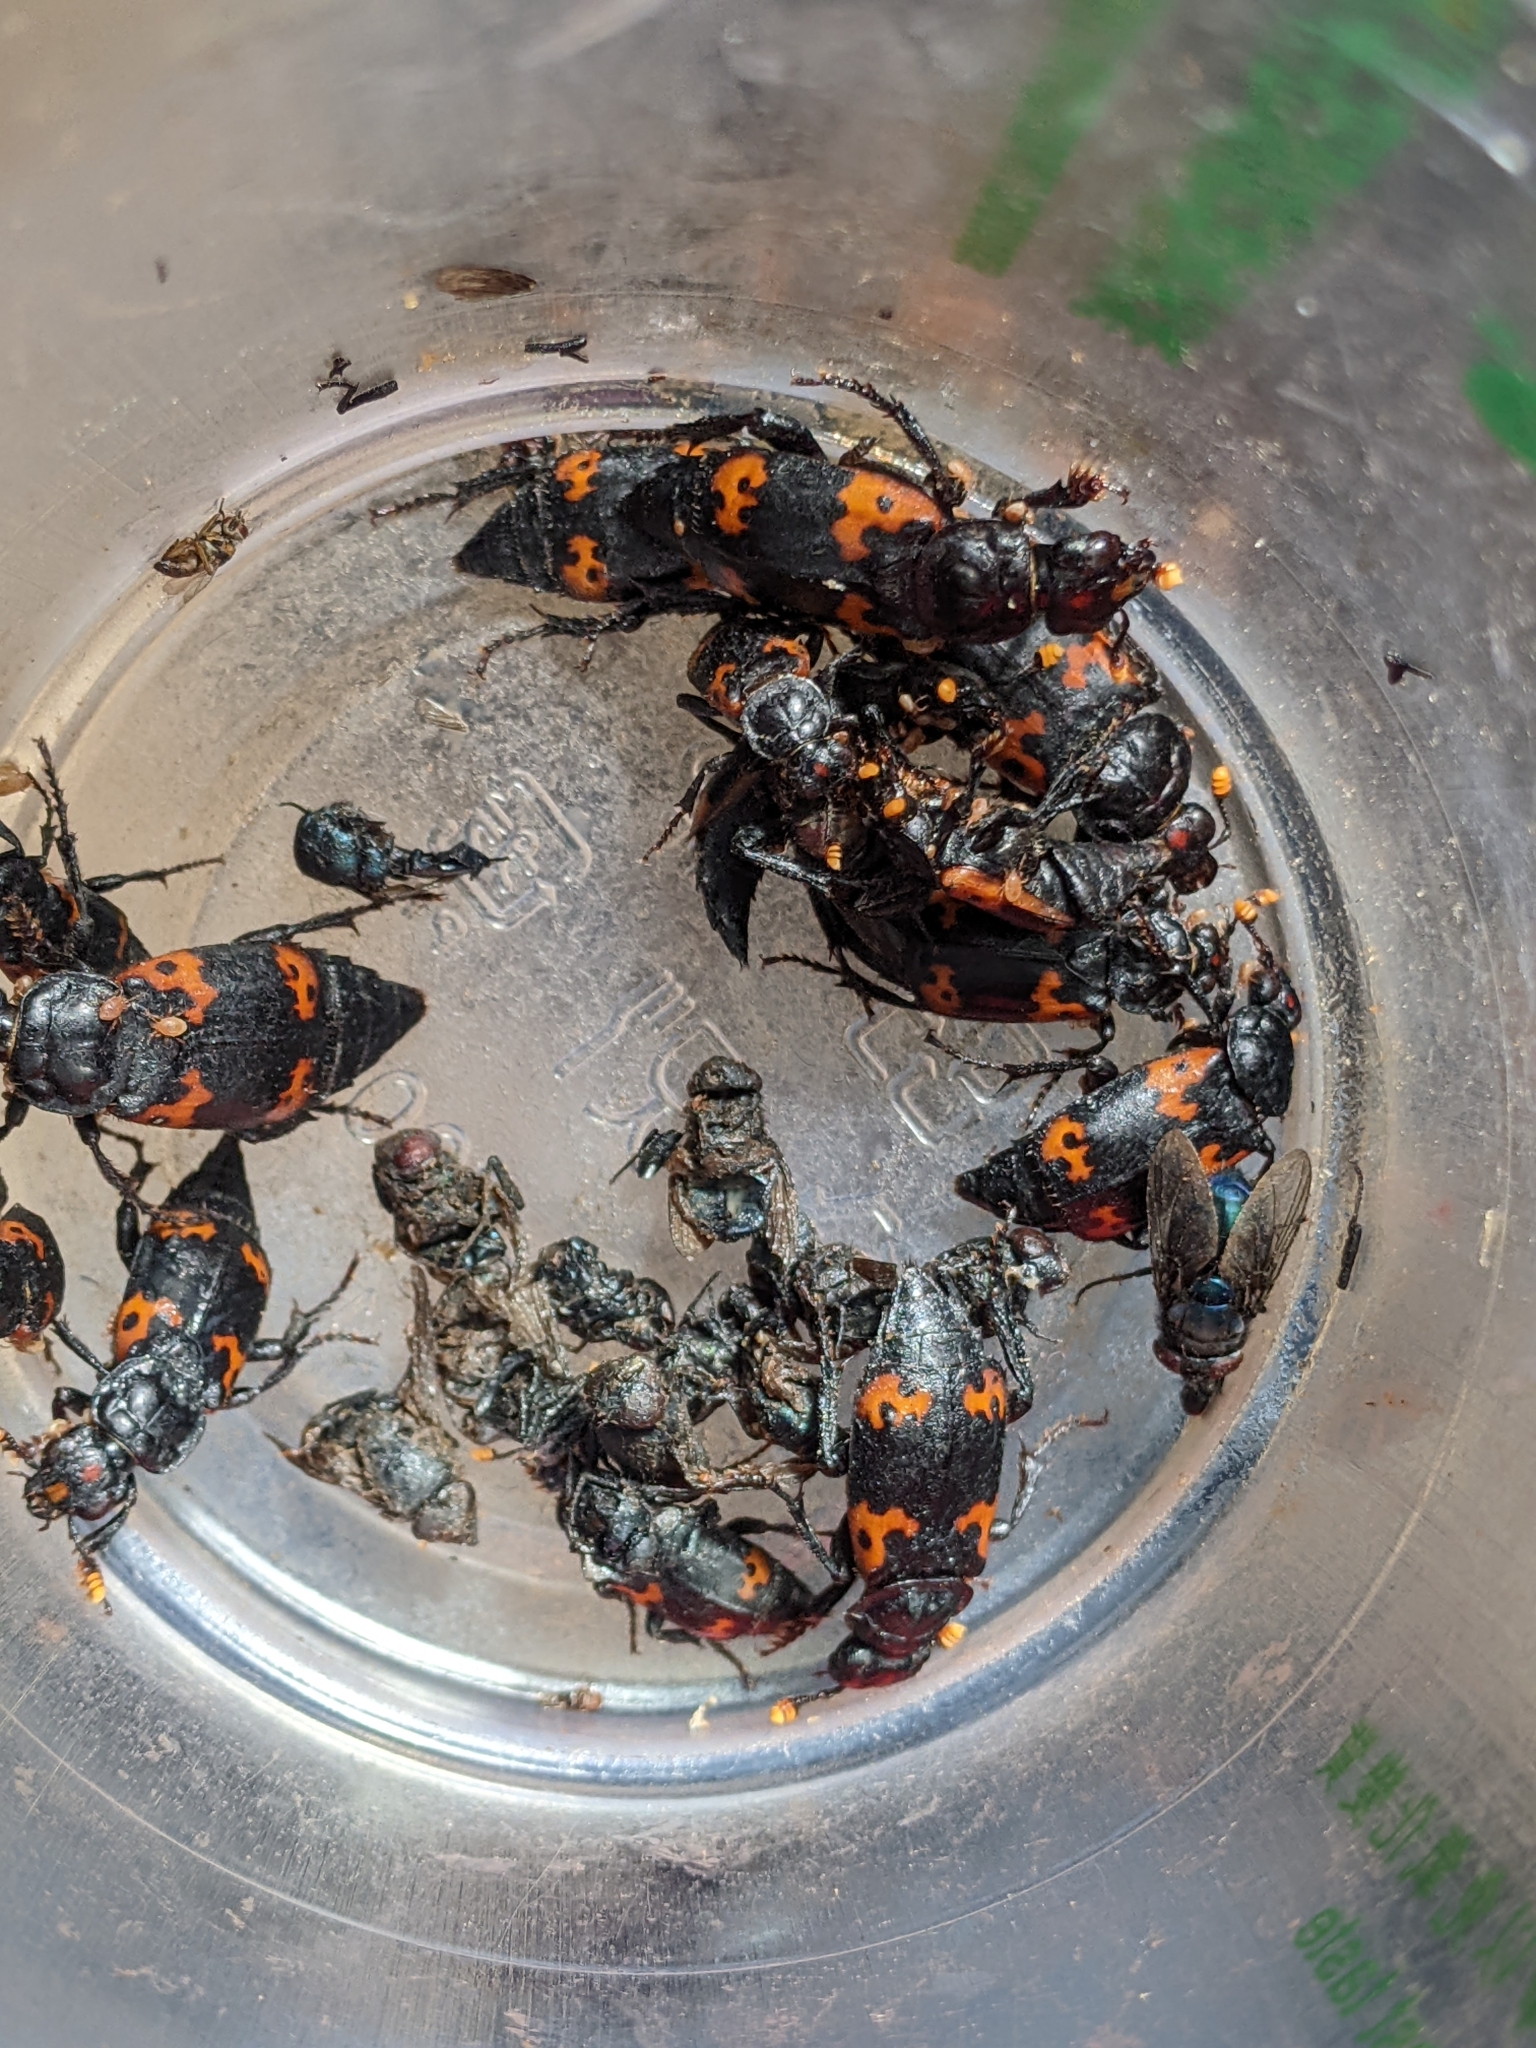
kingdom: Animalia
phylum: Arthropoda
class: Insecta
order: Coleoptera
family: Staphylinidae
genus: Nicrophorus
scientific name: Nicrophorus nepalensis
